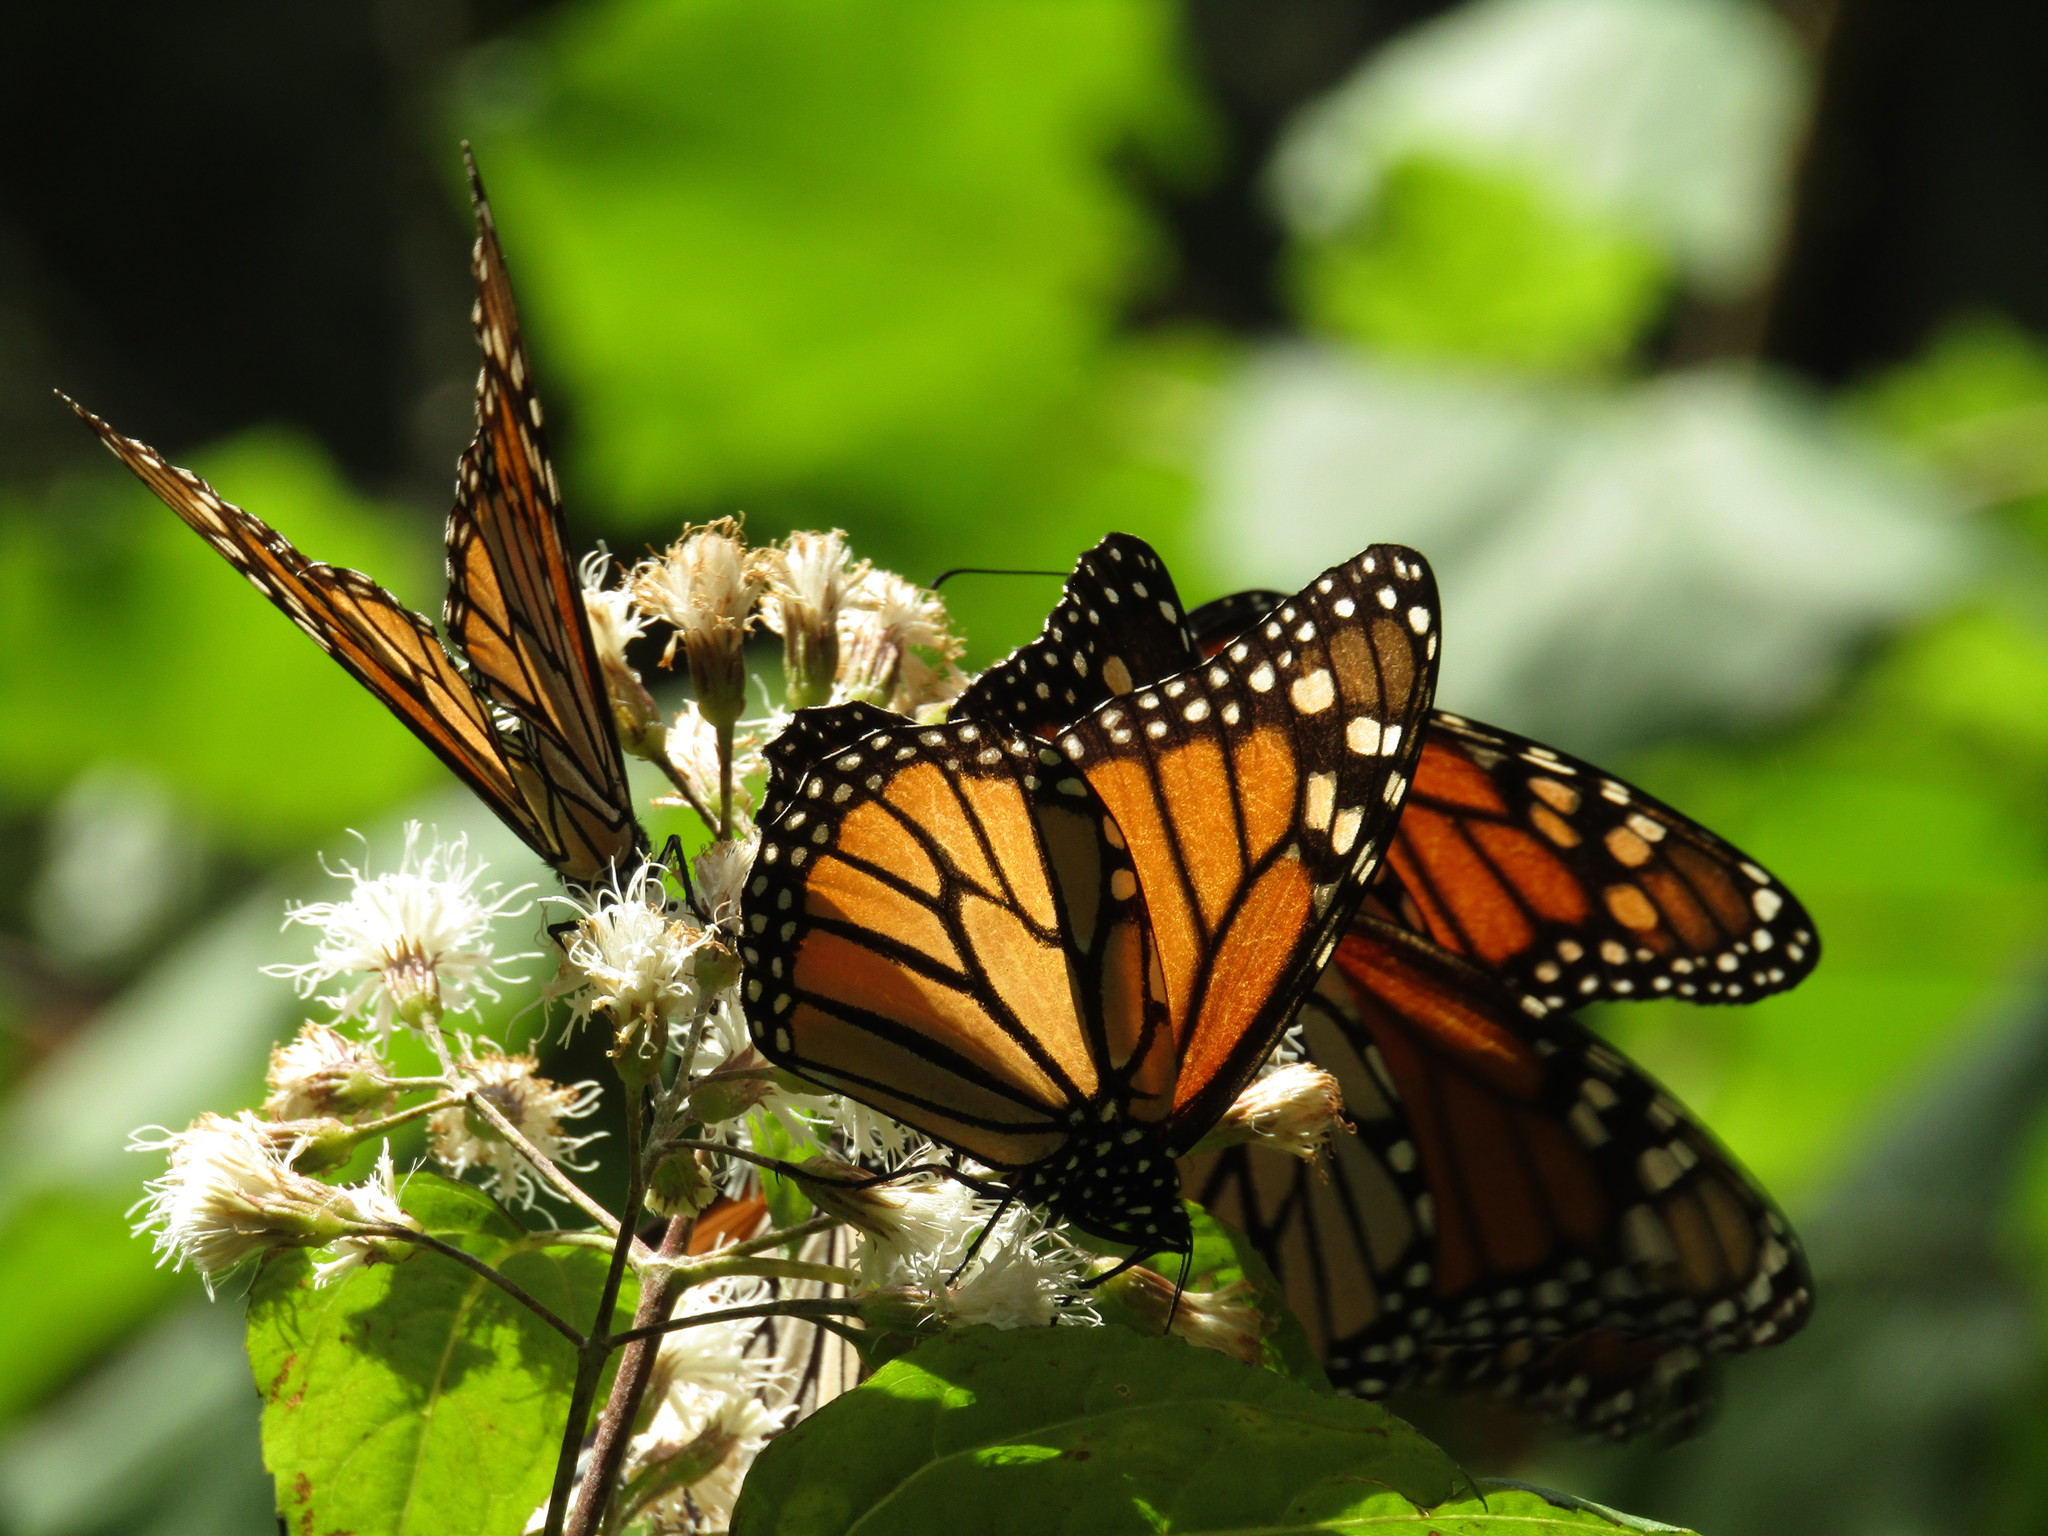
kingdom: Animalia
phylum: Arthropoda
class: Insecta
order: Lepidoptera
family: Nymphalidae
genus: Danaus
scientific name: Danaus plexippus
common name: Monarch
